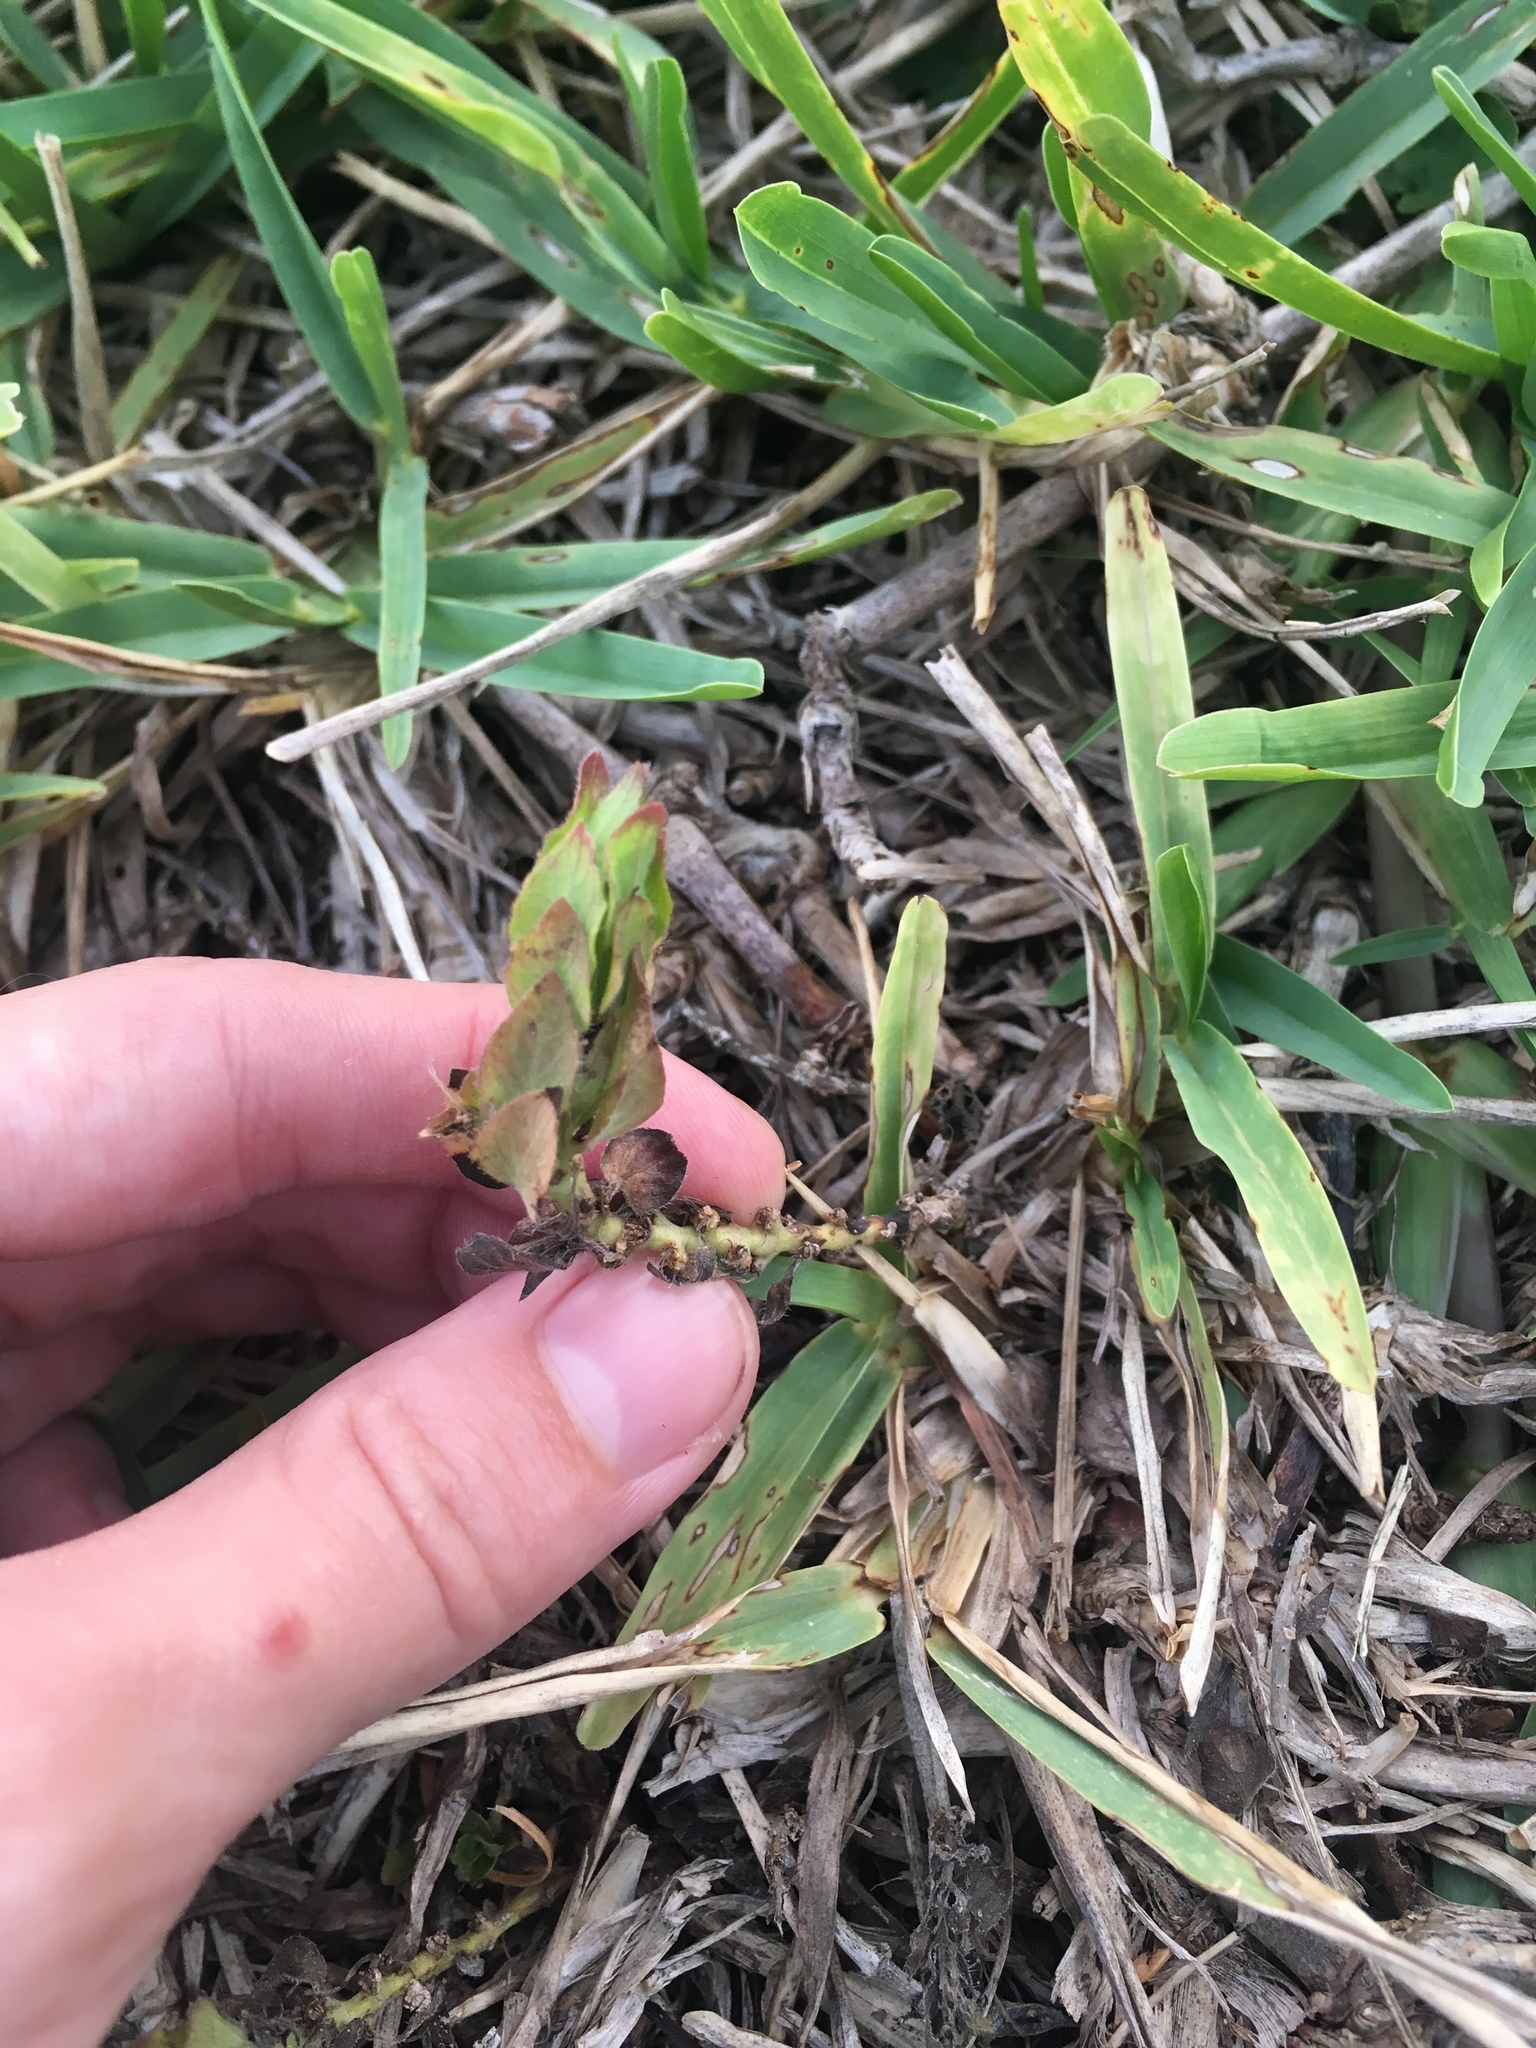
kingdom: Plantae
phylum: Tracheophyta
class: Magnoliopsida
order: Lamiales
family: Acanthaceae
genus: Ruellia
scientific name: Ruellia blechum
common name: Browne's blechum
